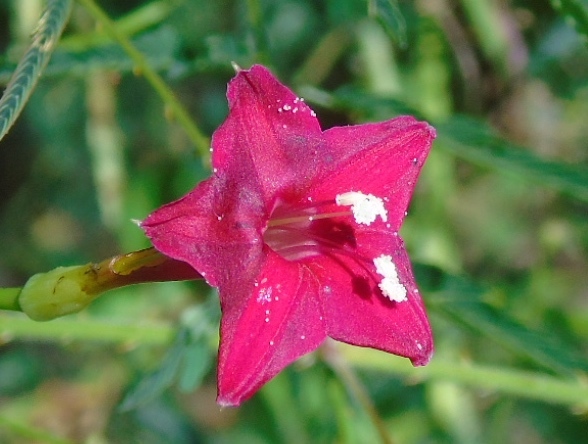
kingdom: Plantae
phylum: Tracheophyta
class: Magnoliopsida
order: Solanales
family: Convolvulaceae
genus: Ipomoea
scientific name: Ipomoea quamoclit
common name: Cypress vine
